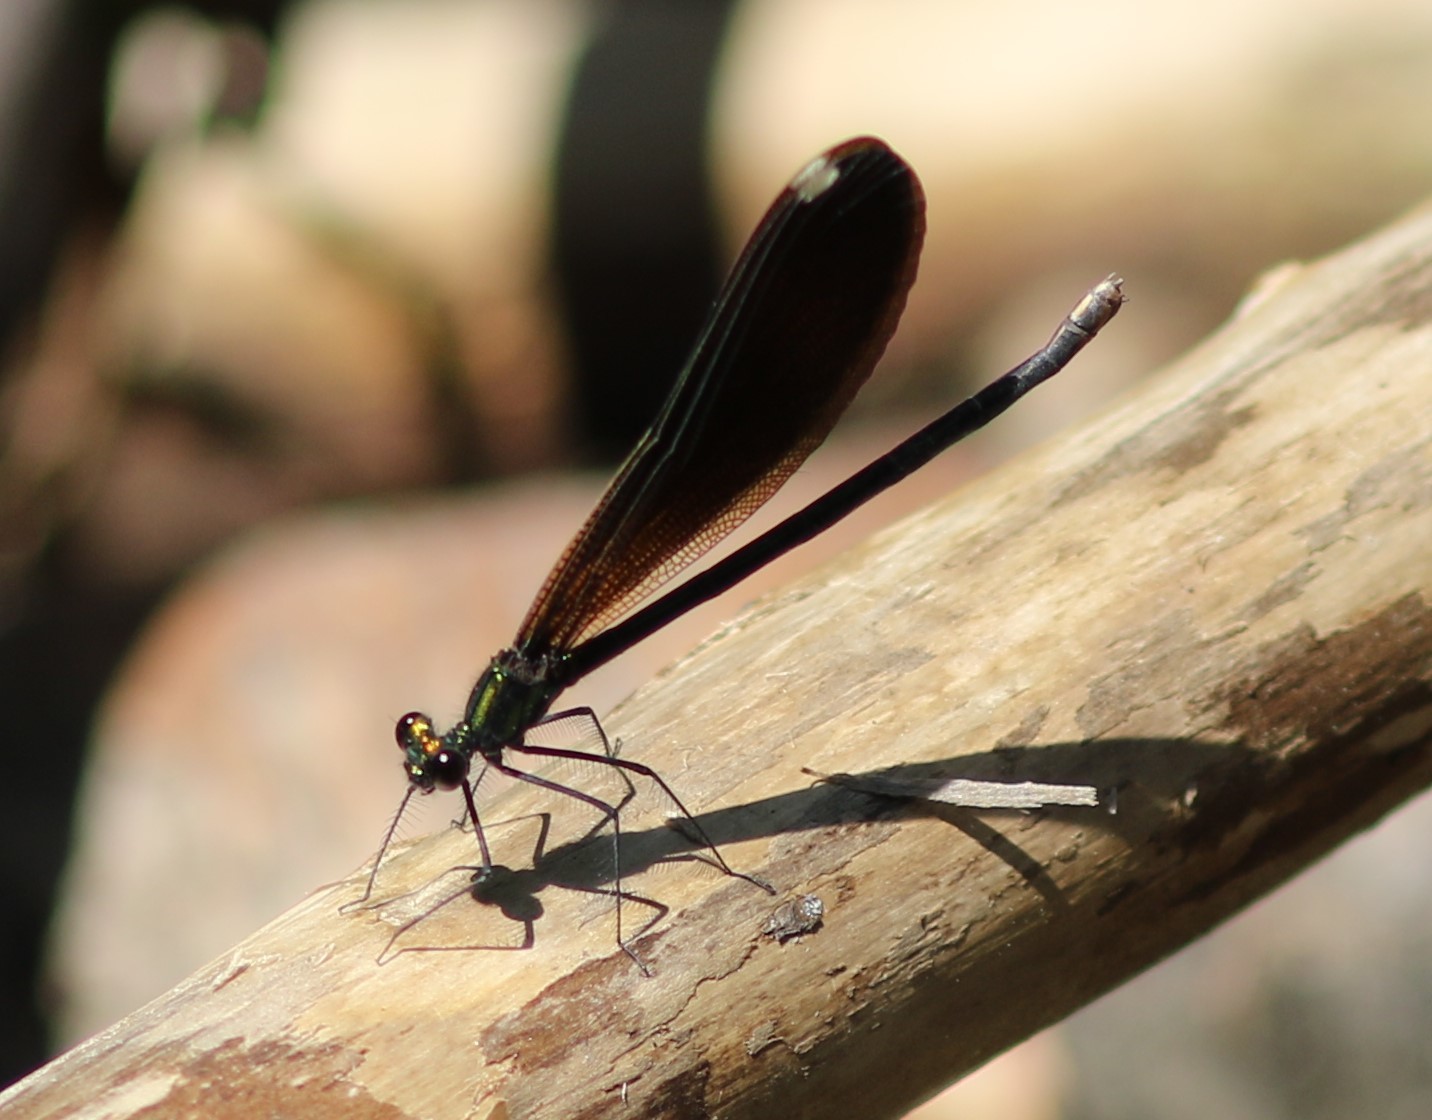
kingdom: Animalia
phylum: Arthropoda
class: Insecta
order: Odonata
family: Calopterygidae
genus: Calopteryx
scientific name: Calopteryx maculata
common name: Ebony jewelwing
